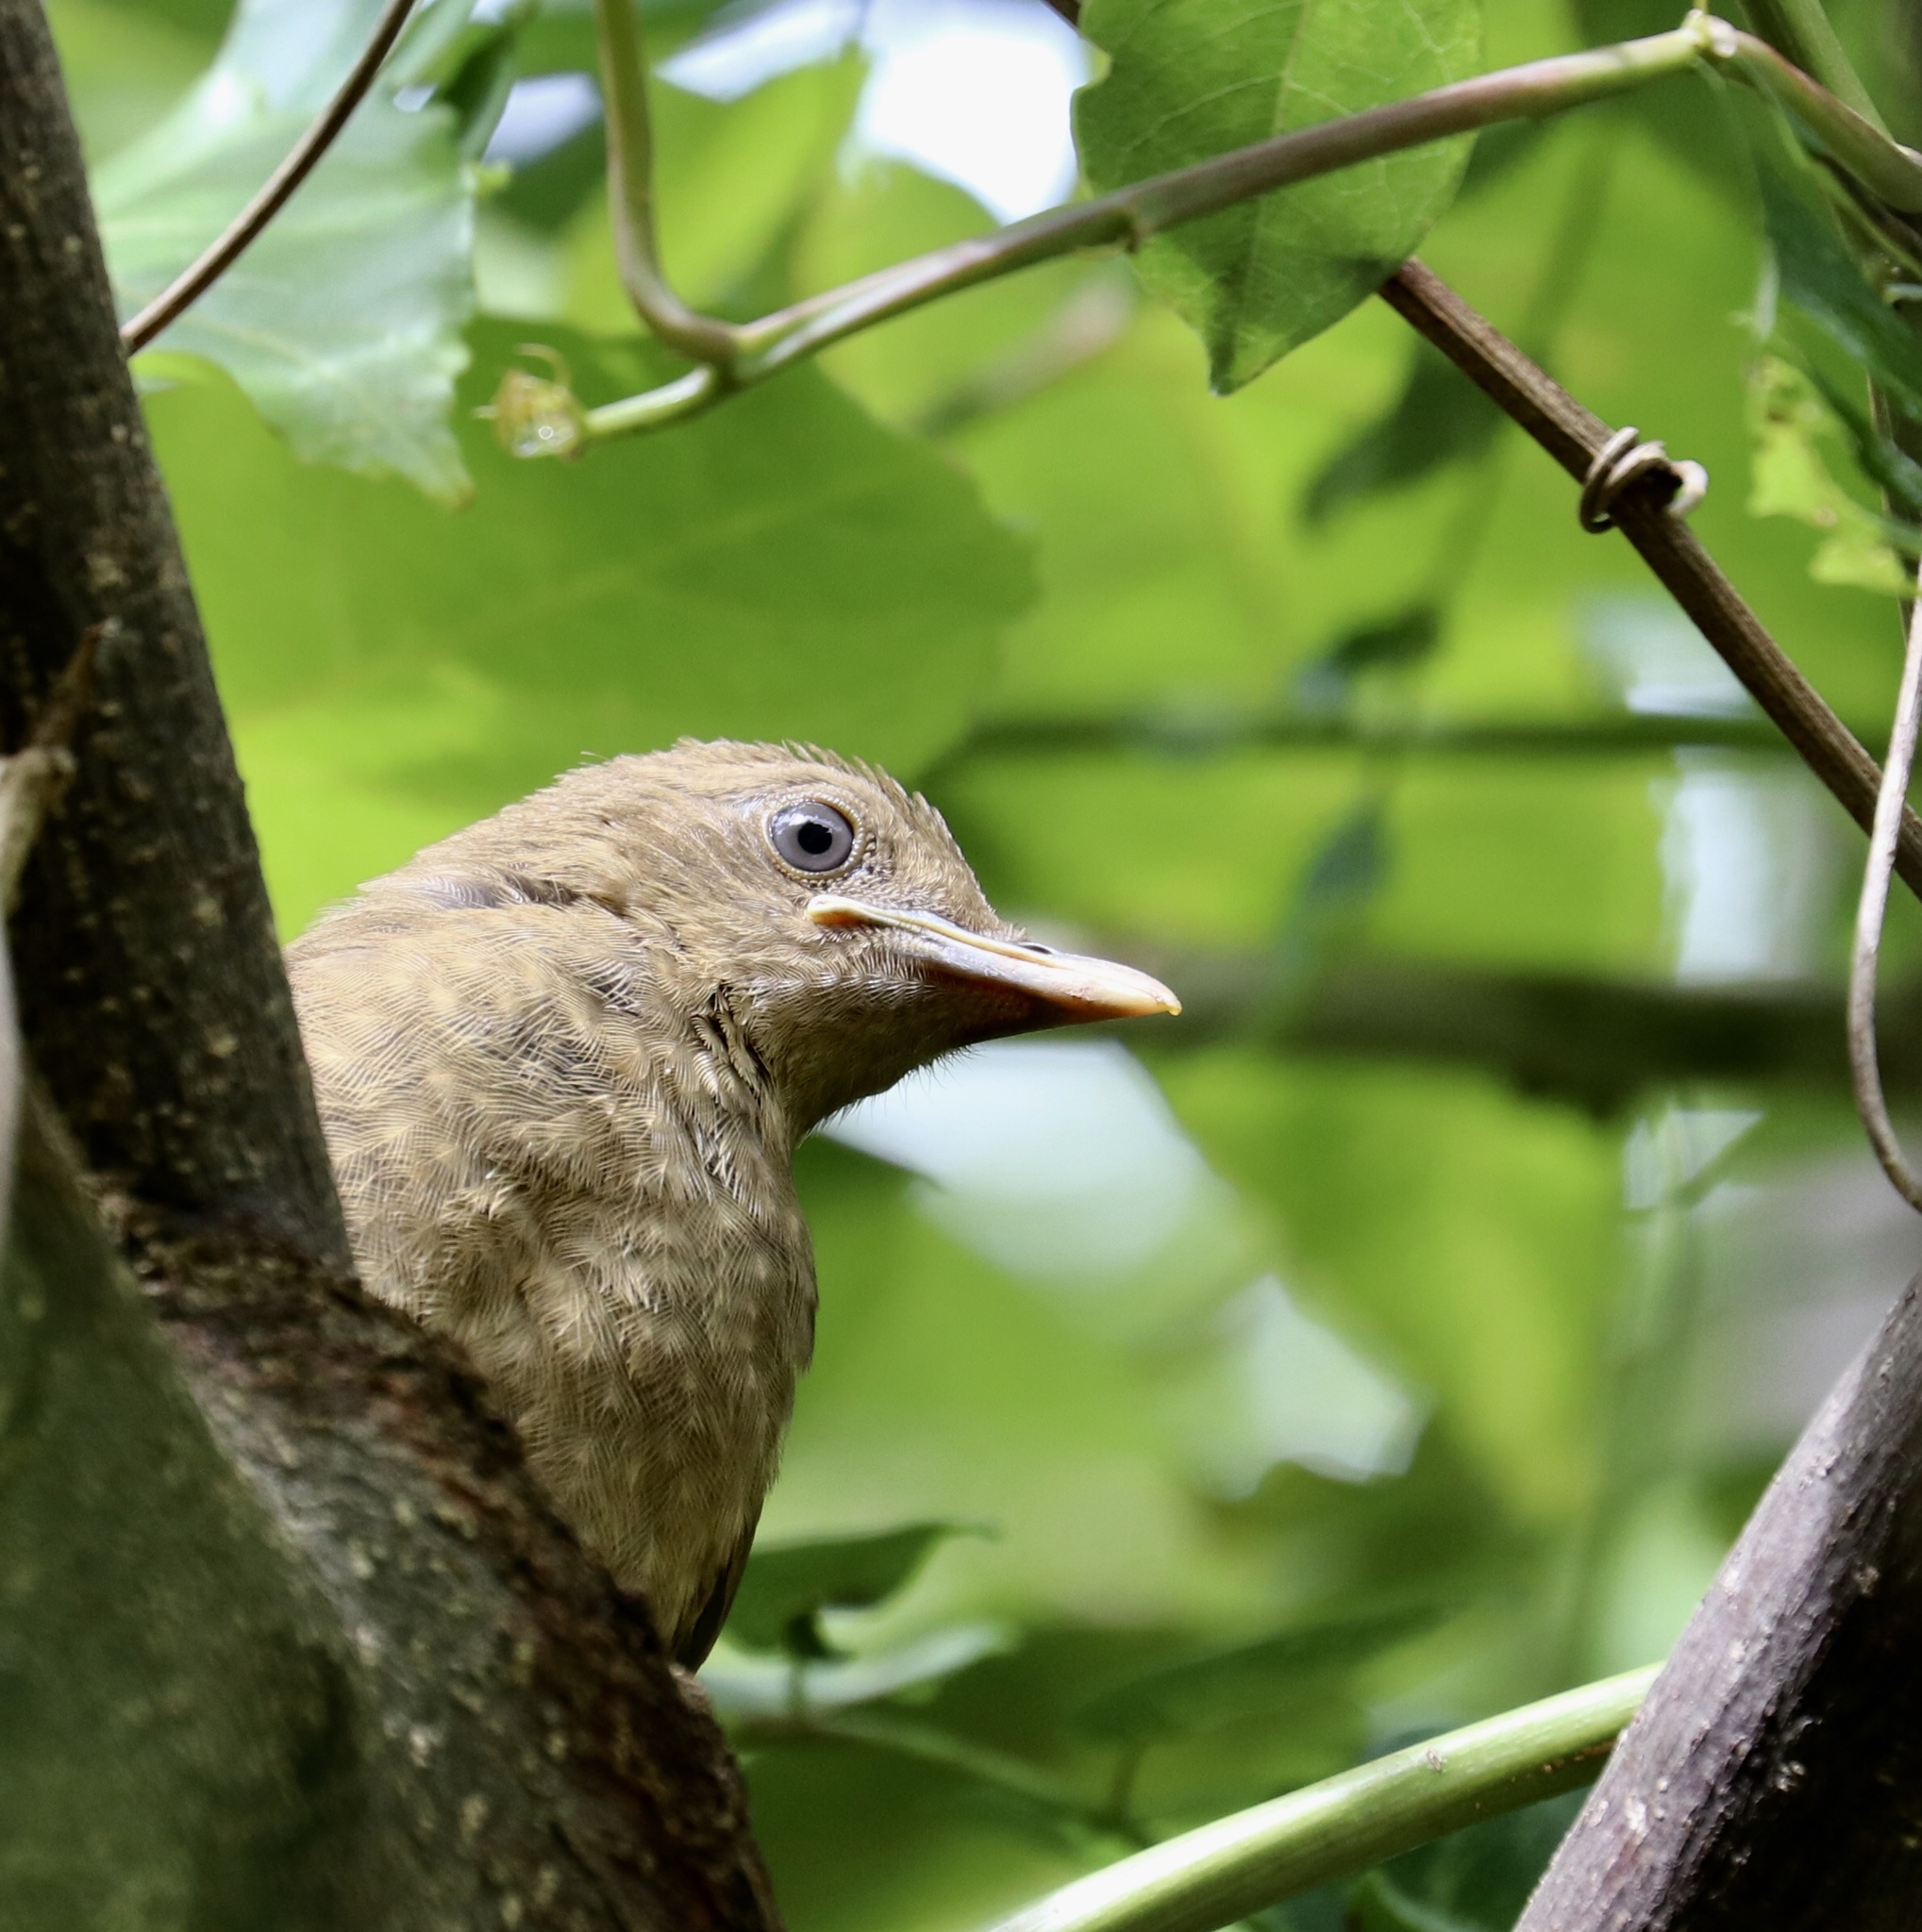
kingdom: Animalia
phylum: Chordata
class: Aves
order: Passeriformes
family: Turdidae
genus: Turdus
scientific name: Turdus grayi
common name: Clay-colored thrush
